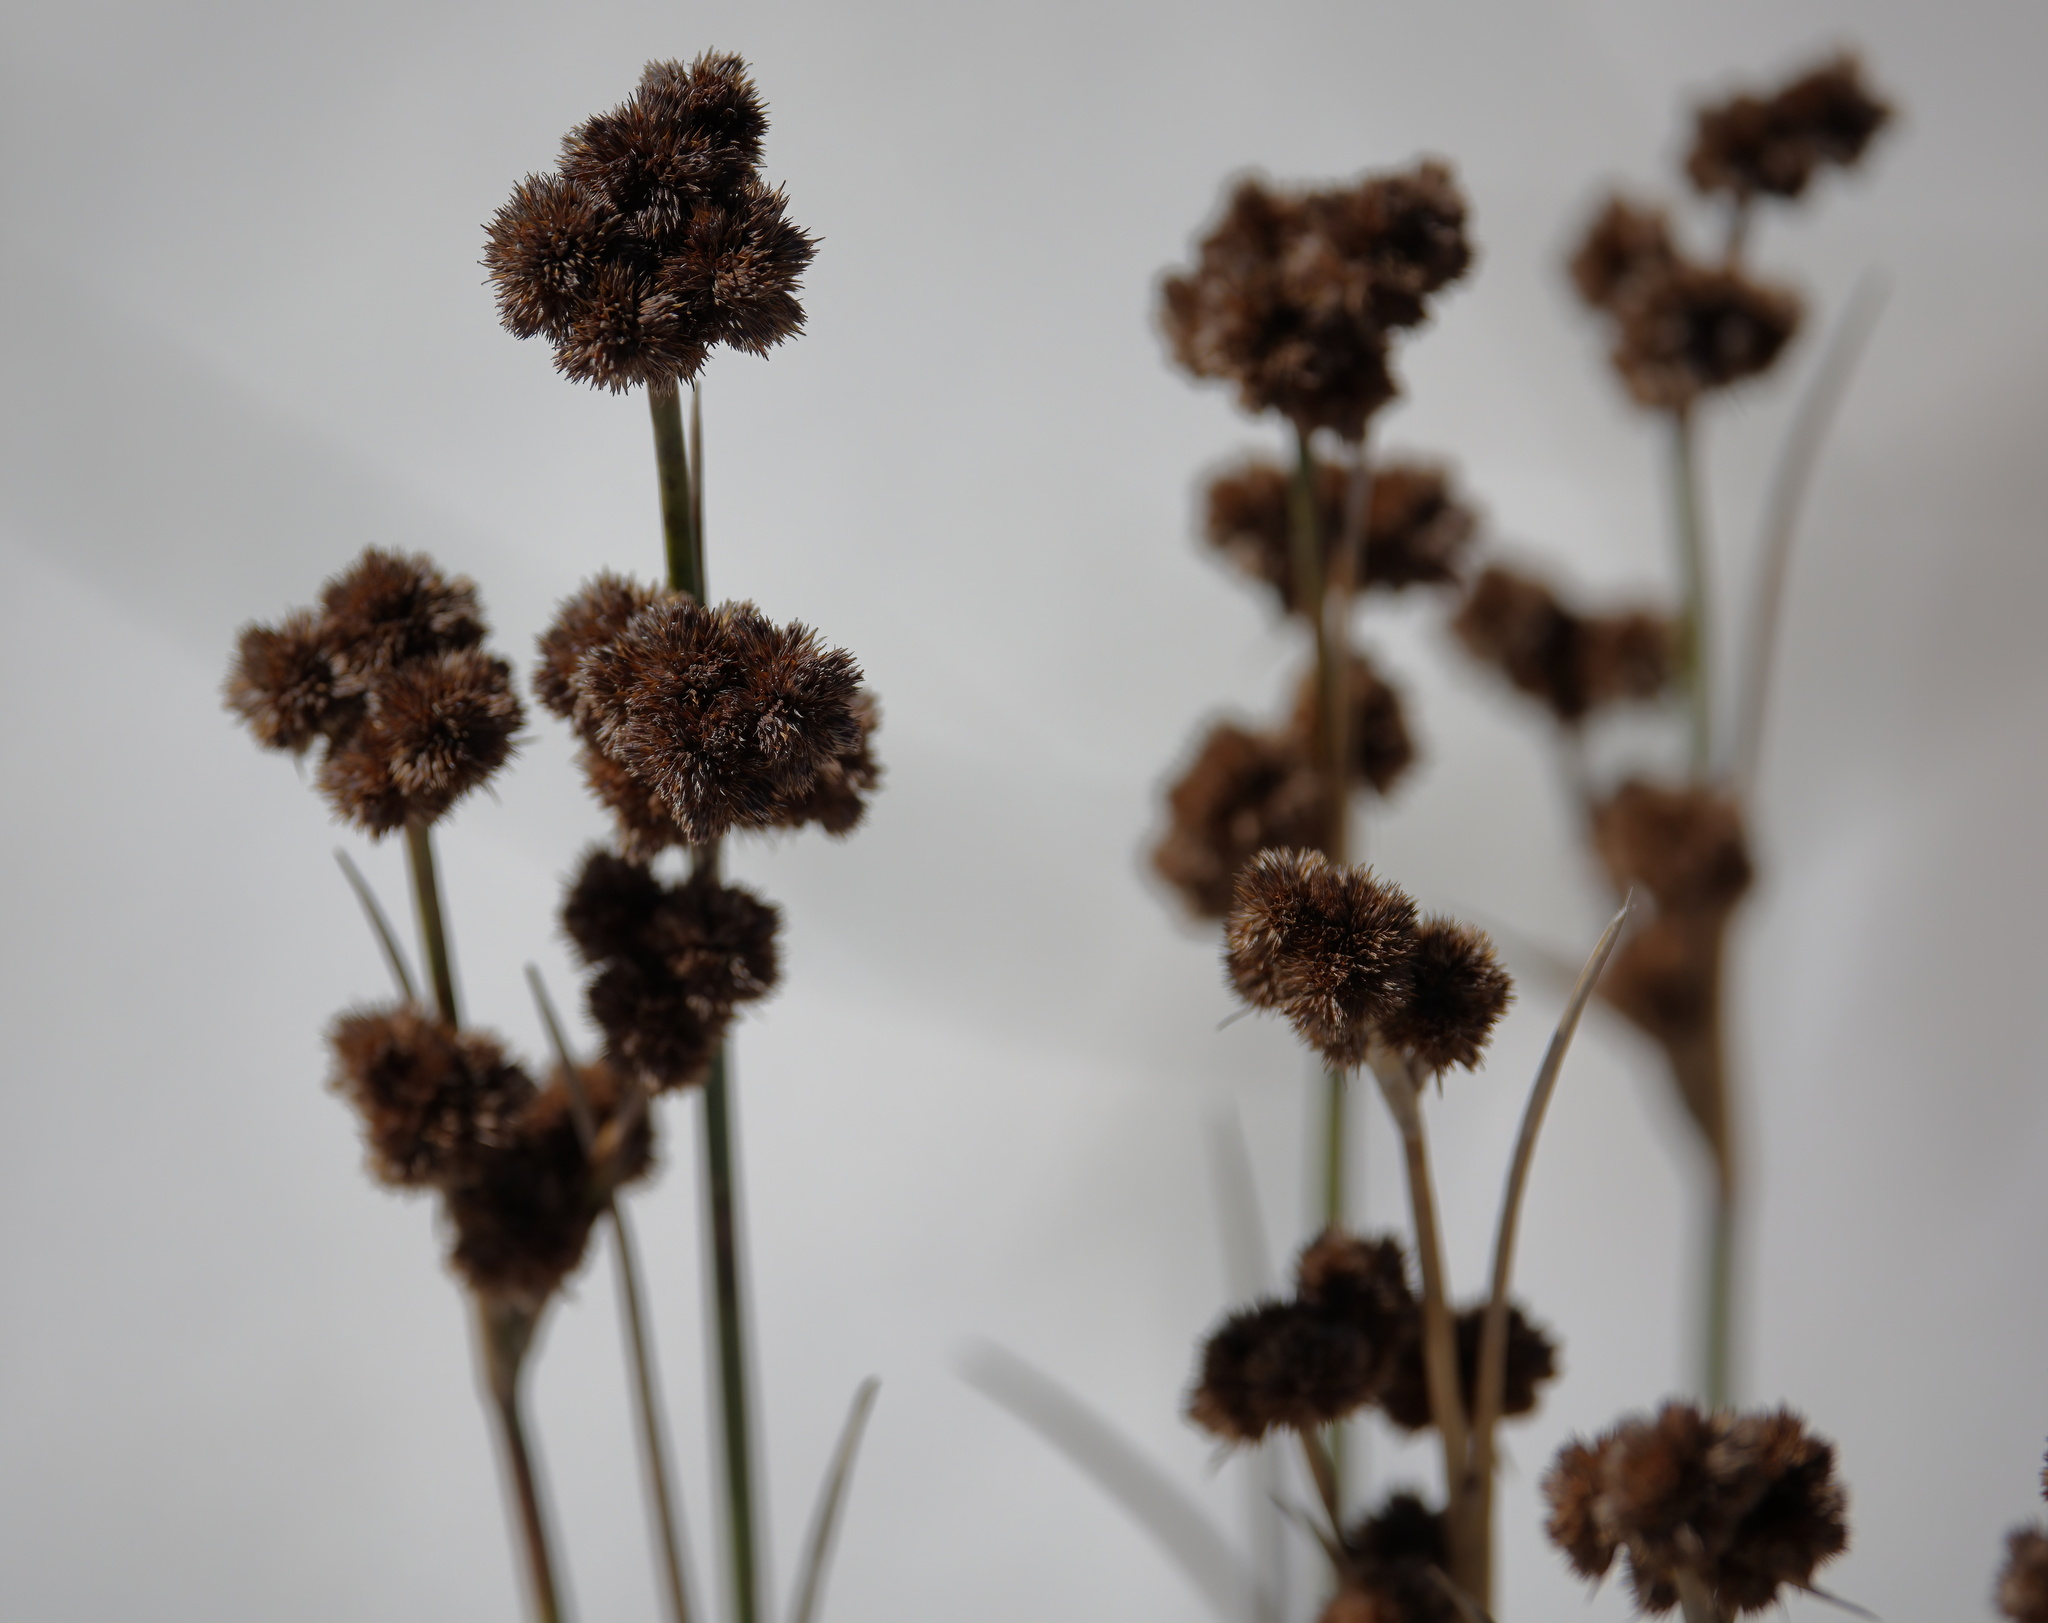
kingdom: Plantae
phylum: Tracheophyta
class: Liliopsida
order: Poales
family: Juncaceae
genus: Juncus
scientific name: Juncus scirpoides
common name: Needlepod rush
